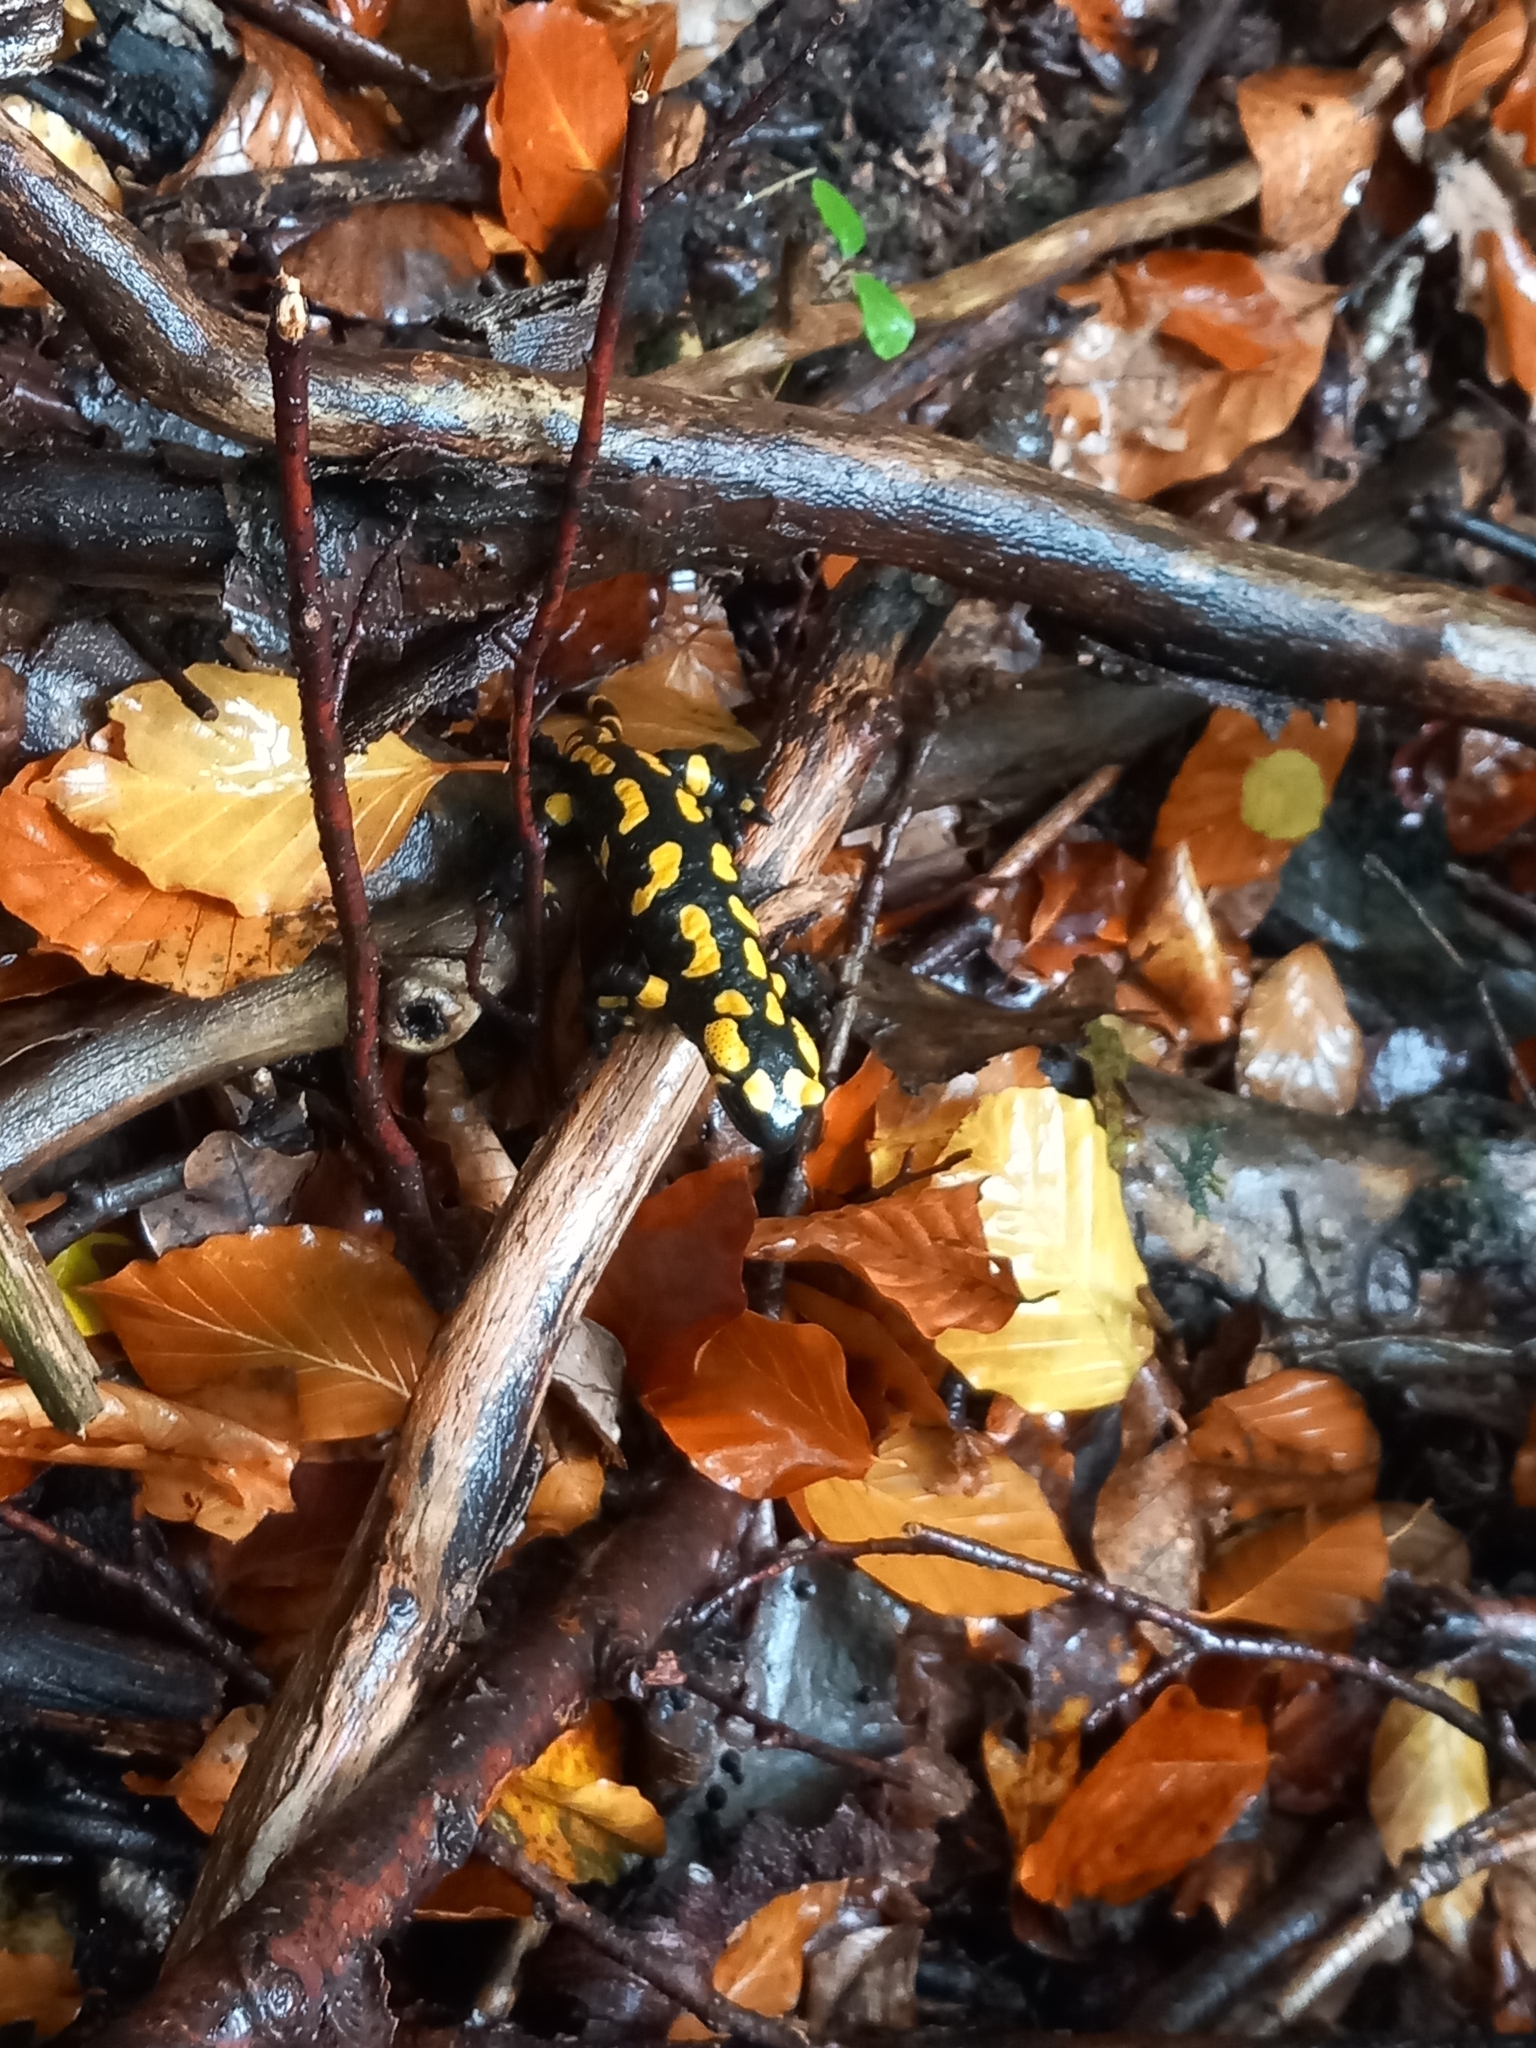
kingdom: Animalia
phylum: Chordata
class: Amphibia
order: Caudata
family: Salamandridae
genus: Salamandra
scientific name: Salamandra salamandra
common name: Fire salamander
